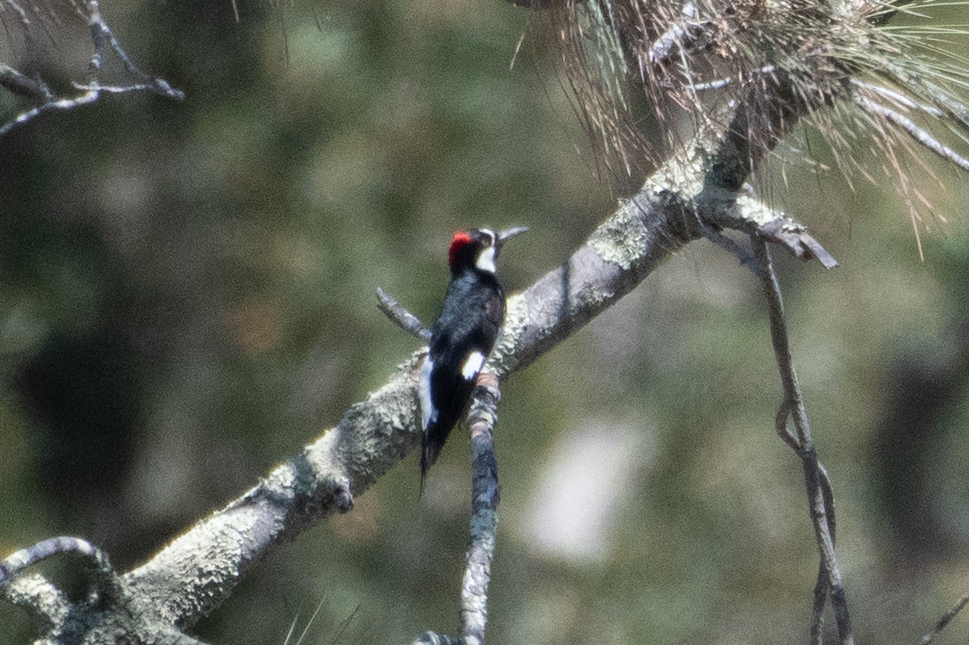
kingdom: Animalia
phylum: Chordata
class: Aves
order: Piciformes
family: Picidae
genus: Melanerpes
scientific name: Melanerpes formicivorus
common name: Acorn woodpecker
